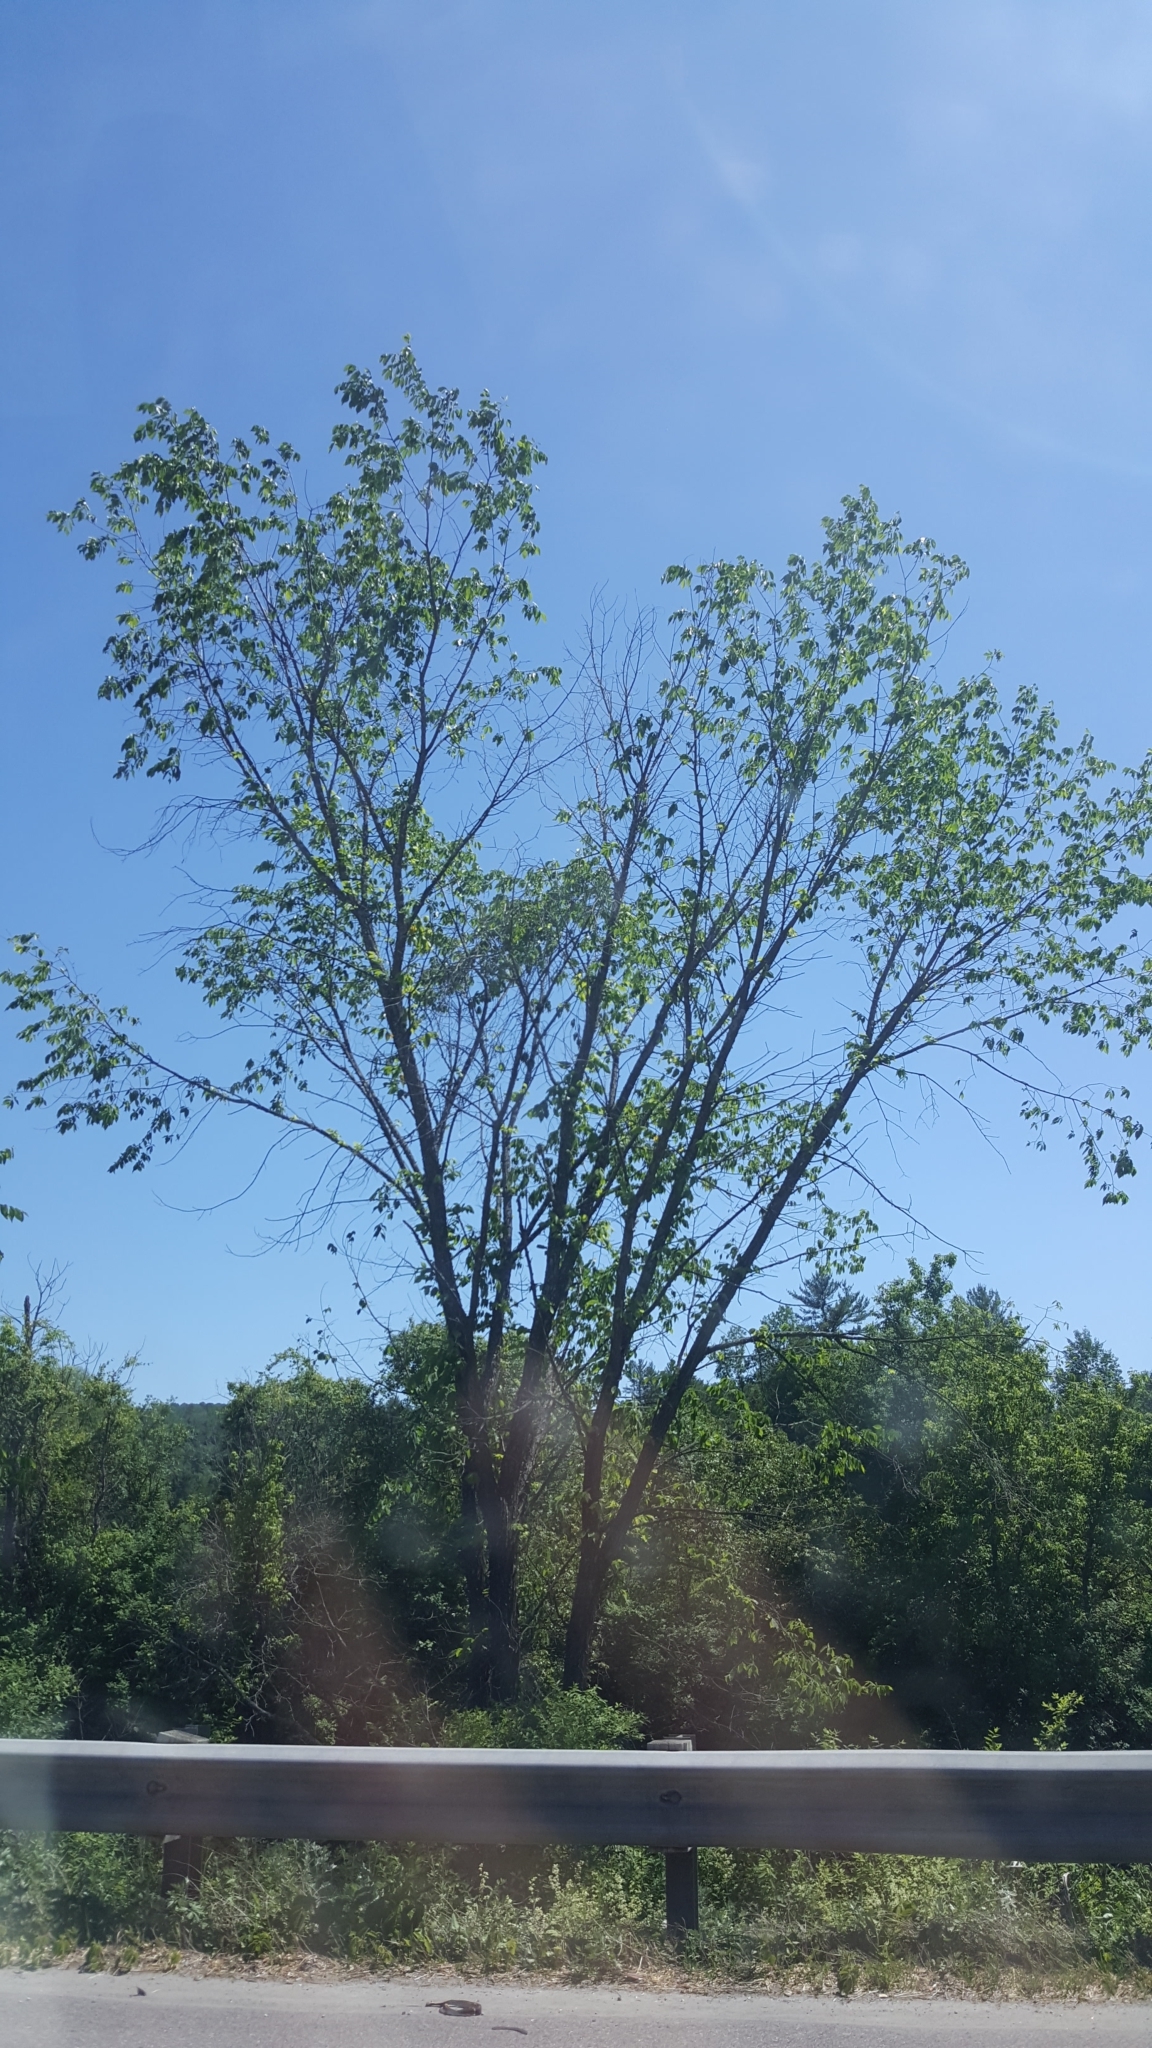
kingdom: Plantae
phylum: Tracheophyta
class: Magnoliopsida
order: Rosales
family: Ulmaceae
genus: Ulmus
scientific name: Ulmus americana
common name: American elm
